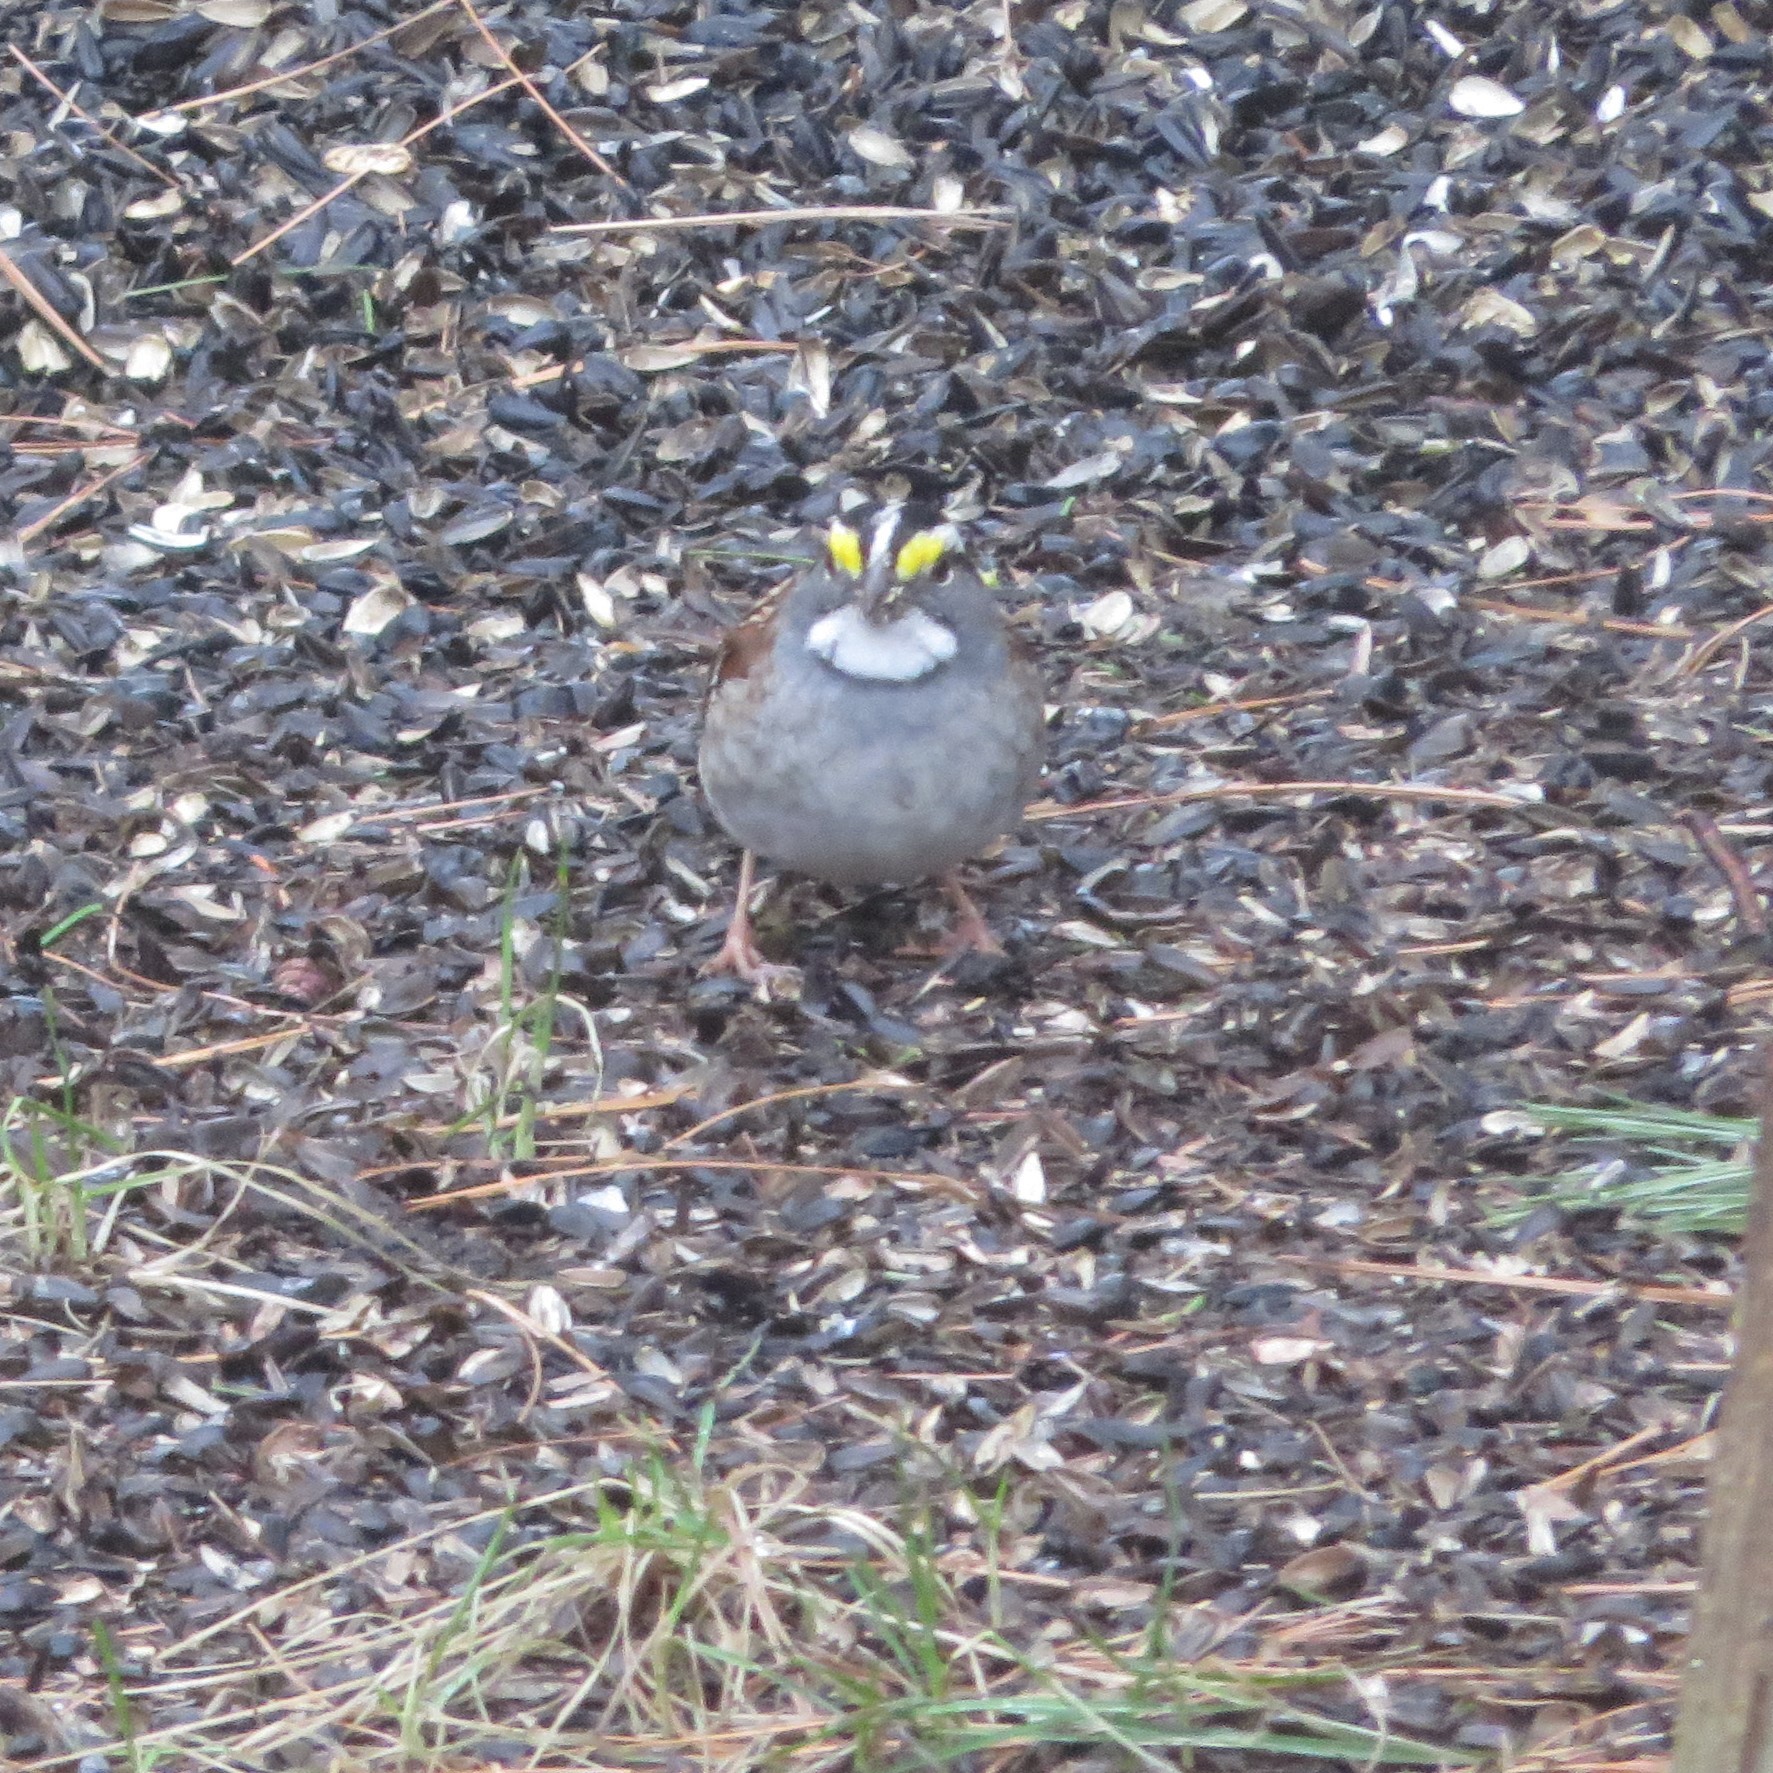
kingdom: Animalia
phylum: Chordata
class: Aves
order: Passeriformes
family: Passerellidae
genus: Zonotrichia
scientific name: Zonotrichia albicollis
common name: White-throated sparrow
